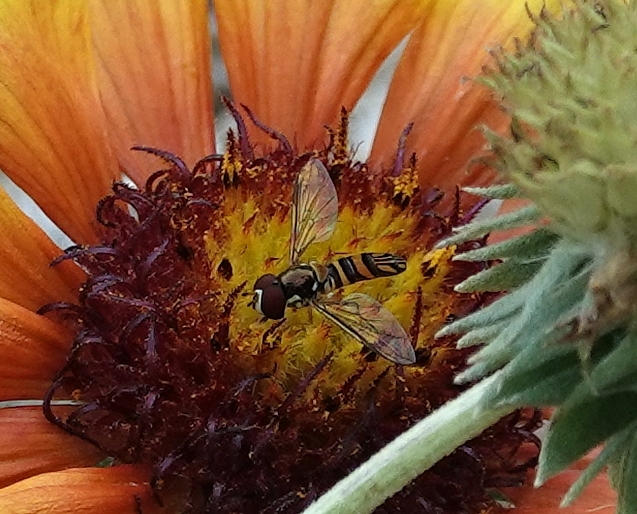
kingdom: Animalia
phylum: Arthropoda
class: Insecta
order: Diptera
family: Syrphidae
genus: Allograpta
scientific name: Allograpta obliqua
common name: Common oblique syrphid
